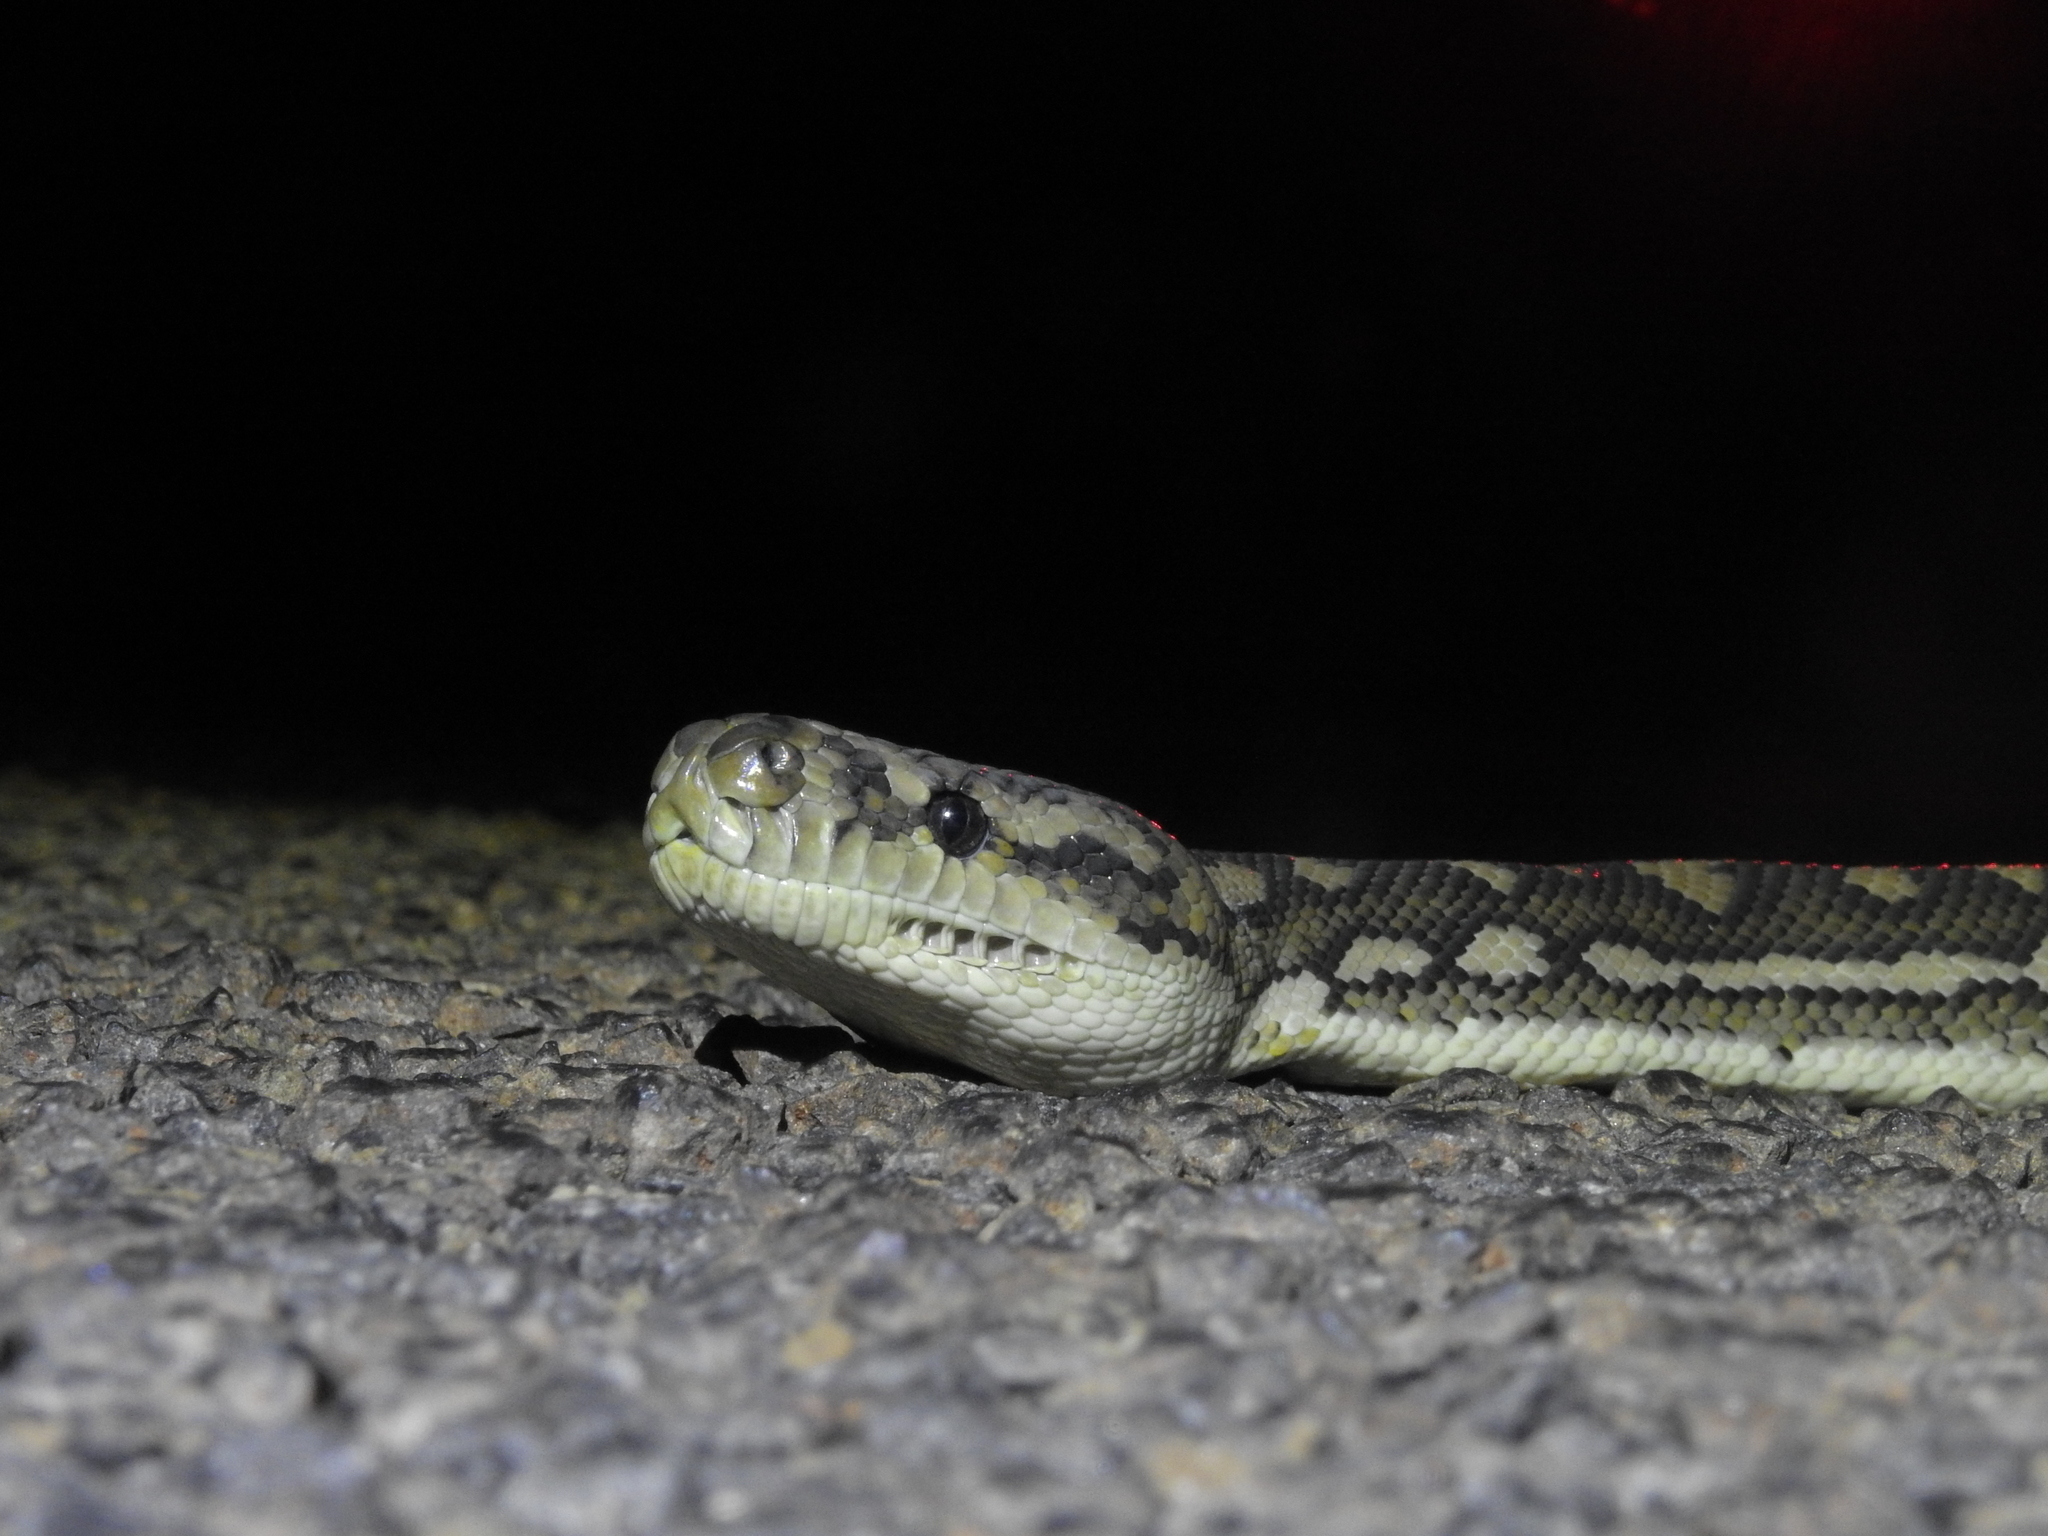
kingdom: Animalia
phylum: Chordata
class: Squamata
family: Pythonidae
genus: Morelia
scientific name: Morelia spilota
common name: Carpet python
